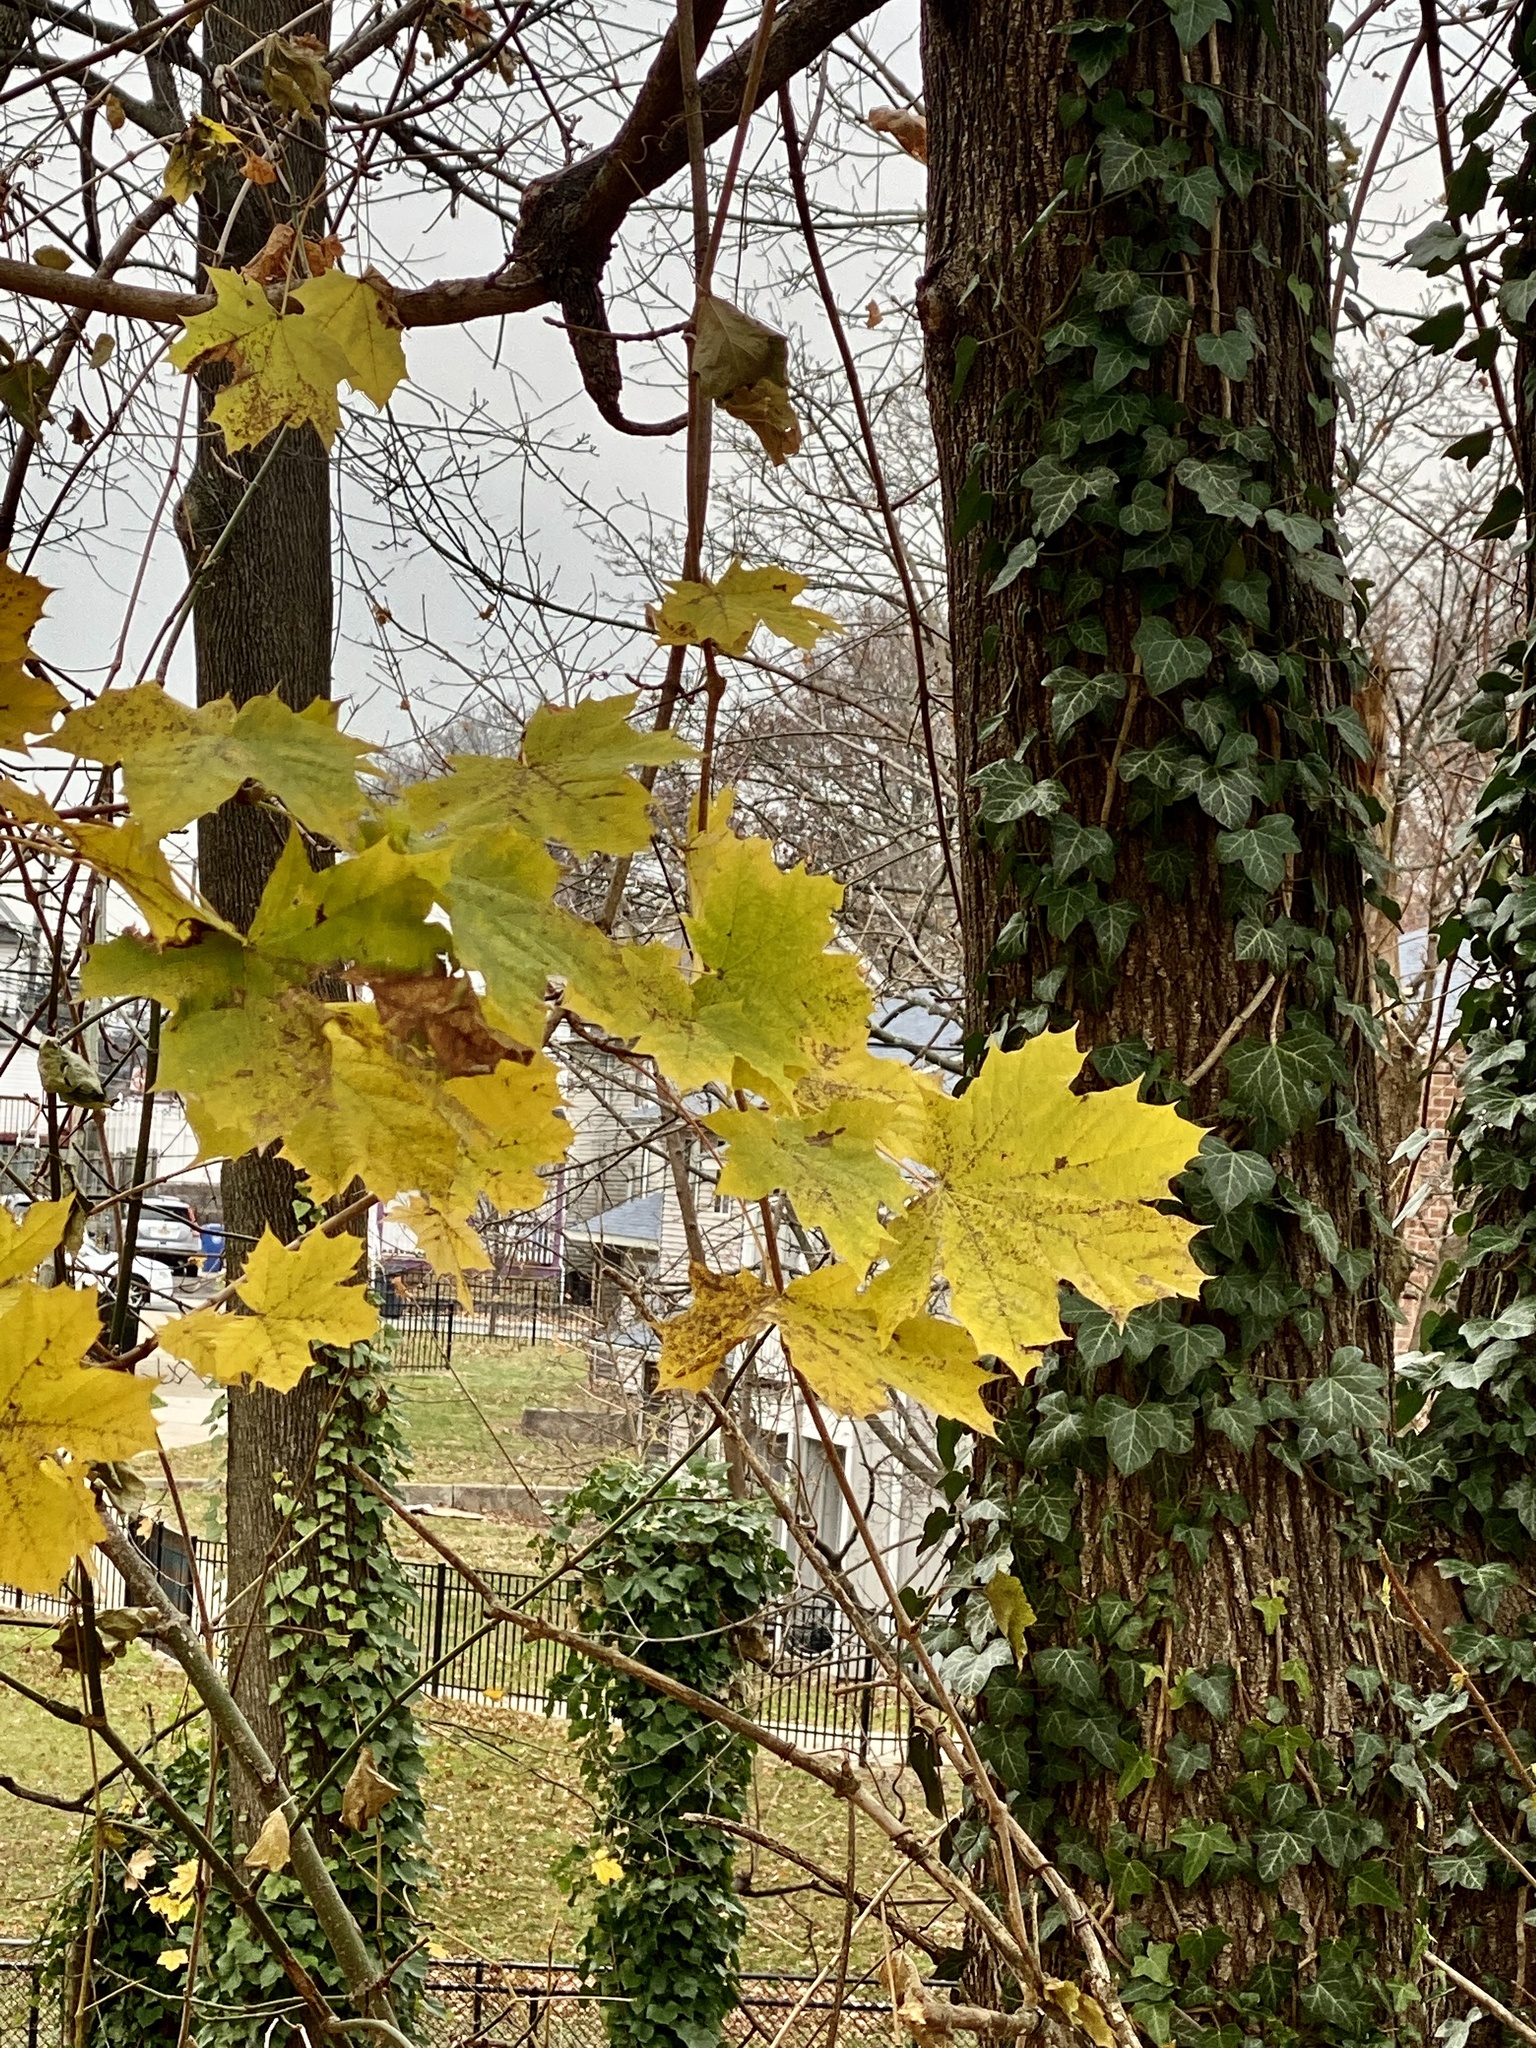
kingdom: Plantae
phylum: Tracheophyta
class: Magnoliopsida
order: Sapindales
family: Sapindaceae
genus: Acer
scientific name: Acer platanoides
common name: Norway maple
